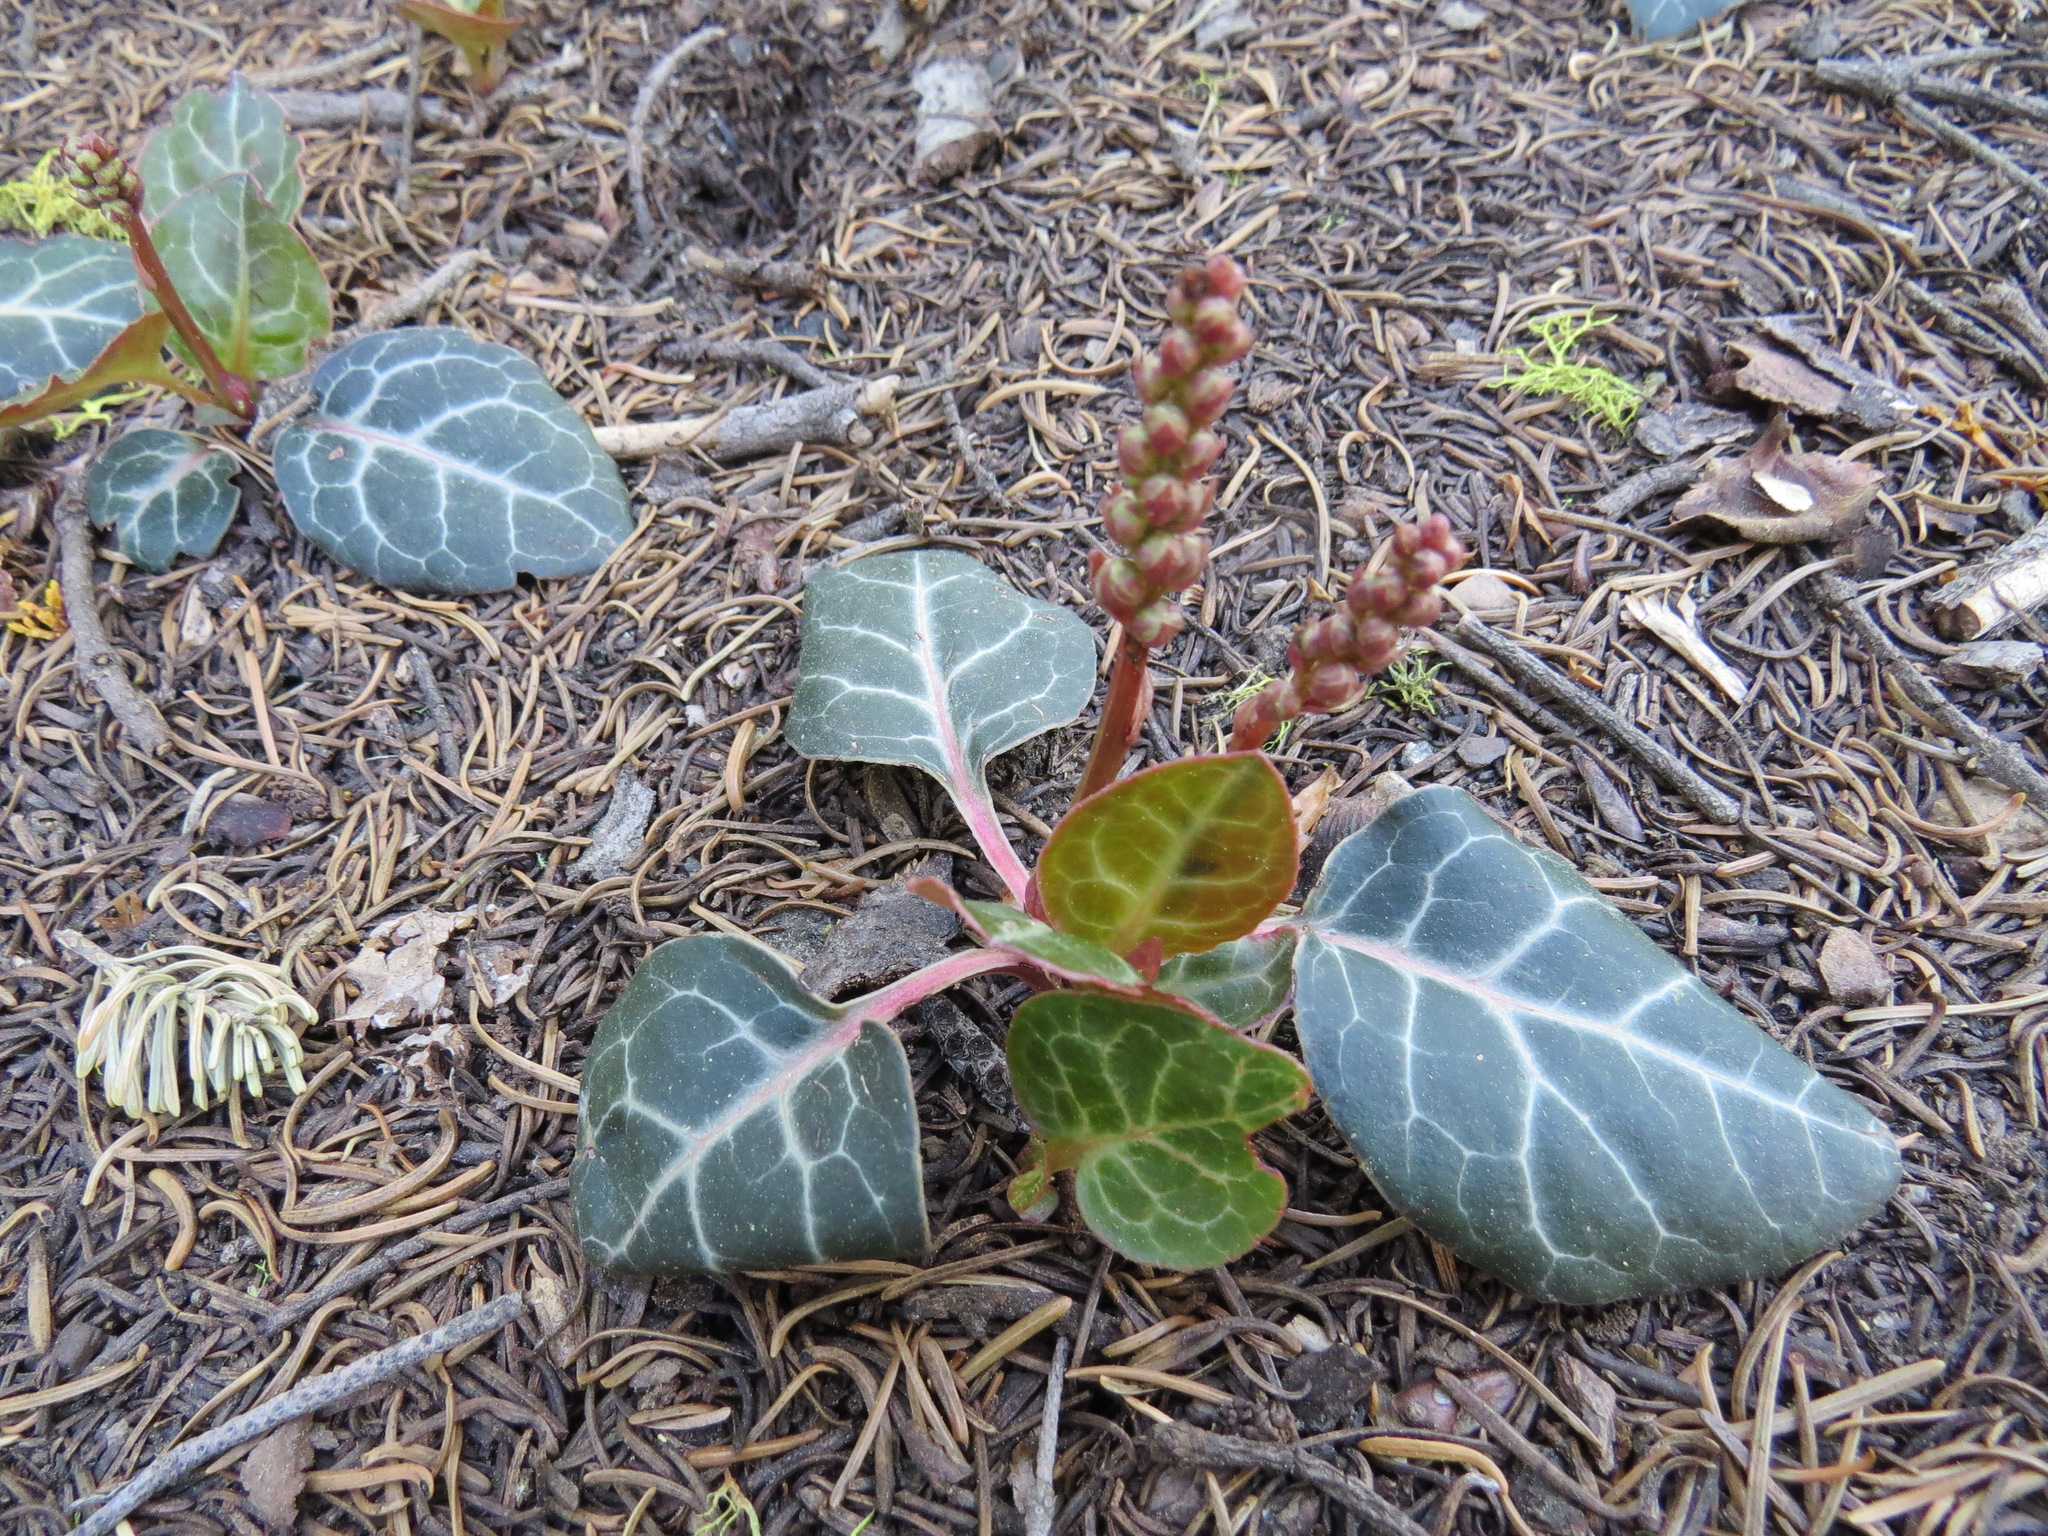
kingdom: Plantae
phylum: Tracheophyta
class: Magnoliopsida
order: Ericales
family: Ericaceae
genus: Pyrola
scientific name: Pyrola picta
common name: White-vein wintergreen
